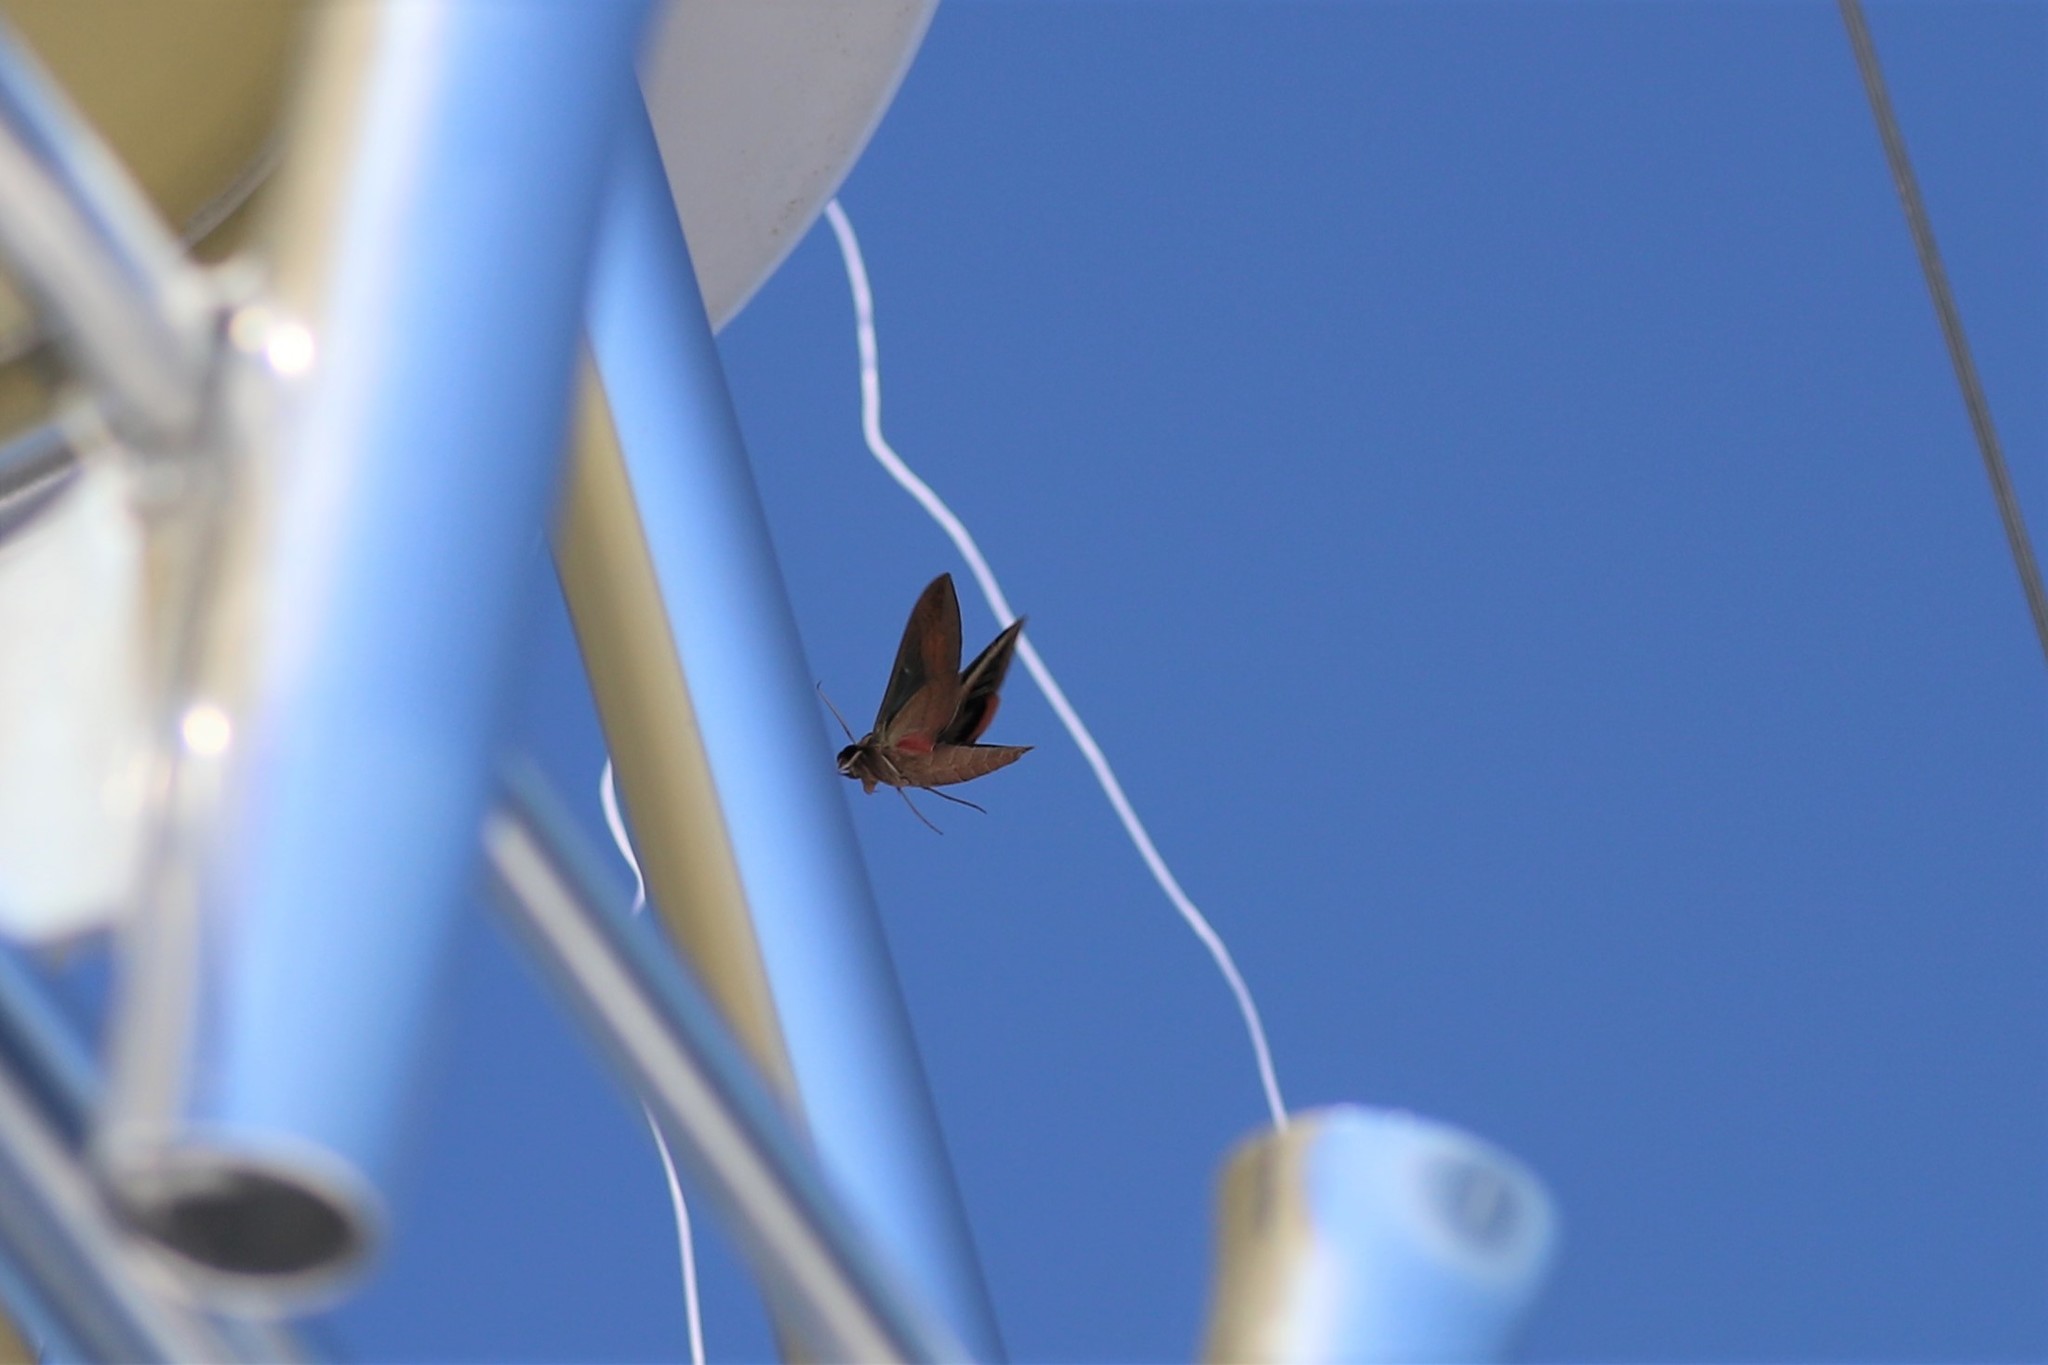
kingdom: Animalia
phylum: Arthropoda
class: Insecta
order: Lepidoptera
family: Sphingidae
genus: Eumorpha
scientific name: Eumorpha fasciatus
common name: Banded sphinx
